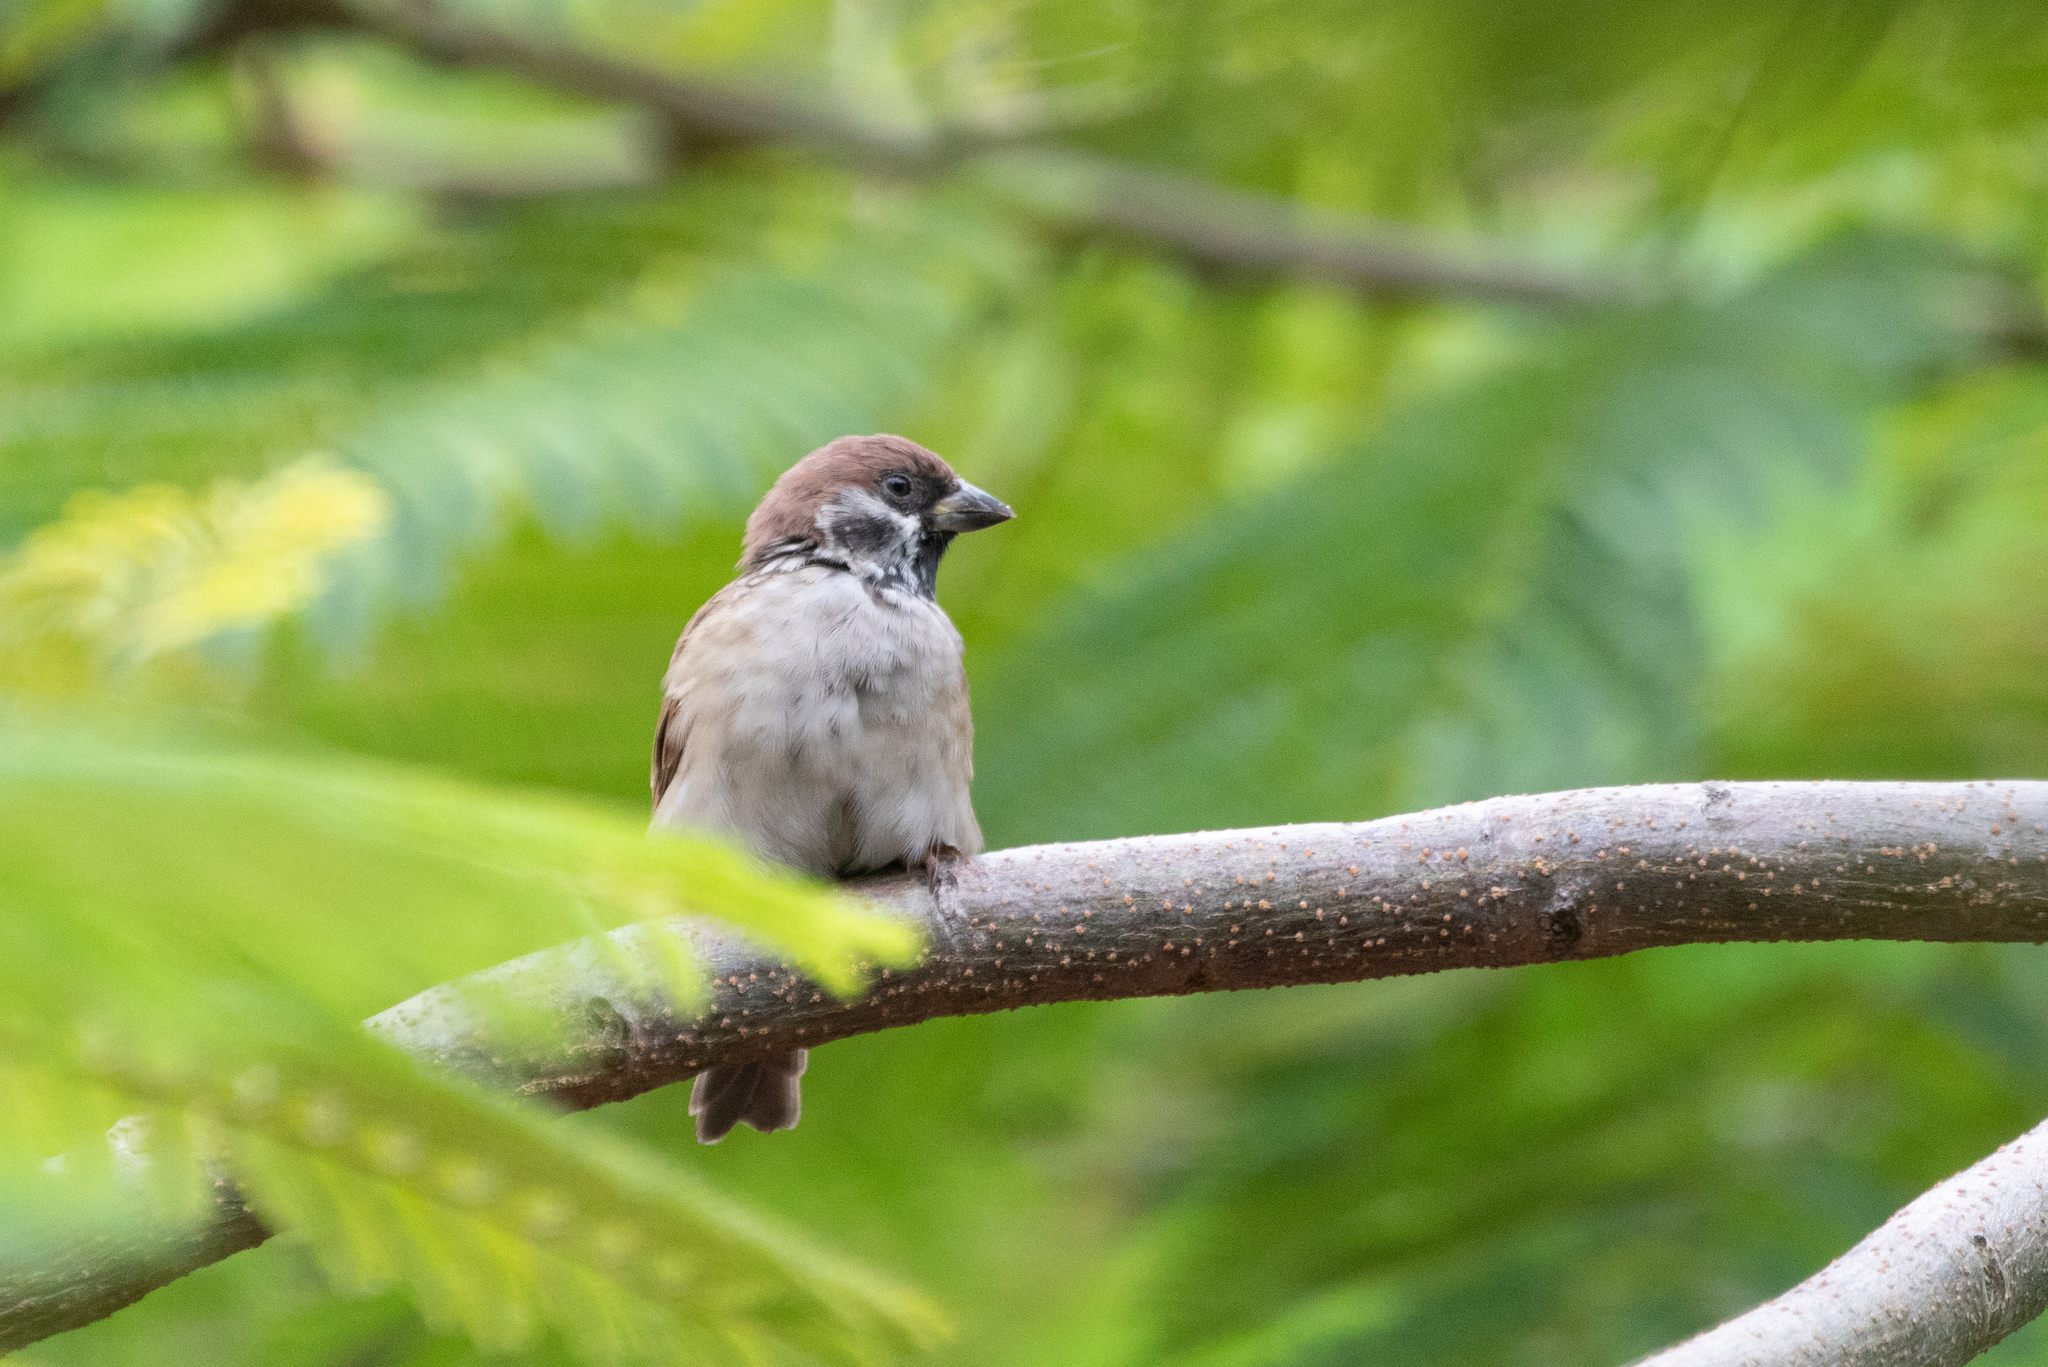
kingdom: Animalia
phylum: Chordata
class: Aves
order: Passeriformes
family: Passeridae
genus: Passer
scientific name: Passer montanus
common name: Eurasian tree sparrow
